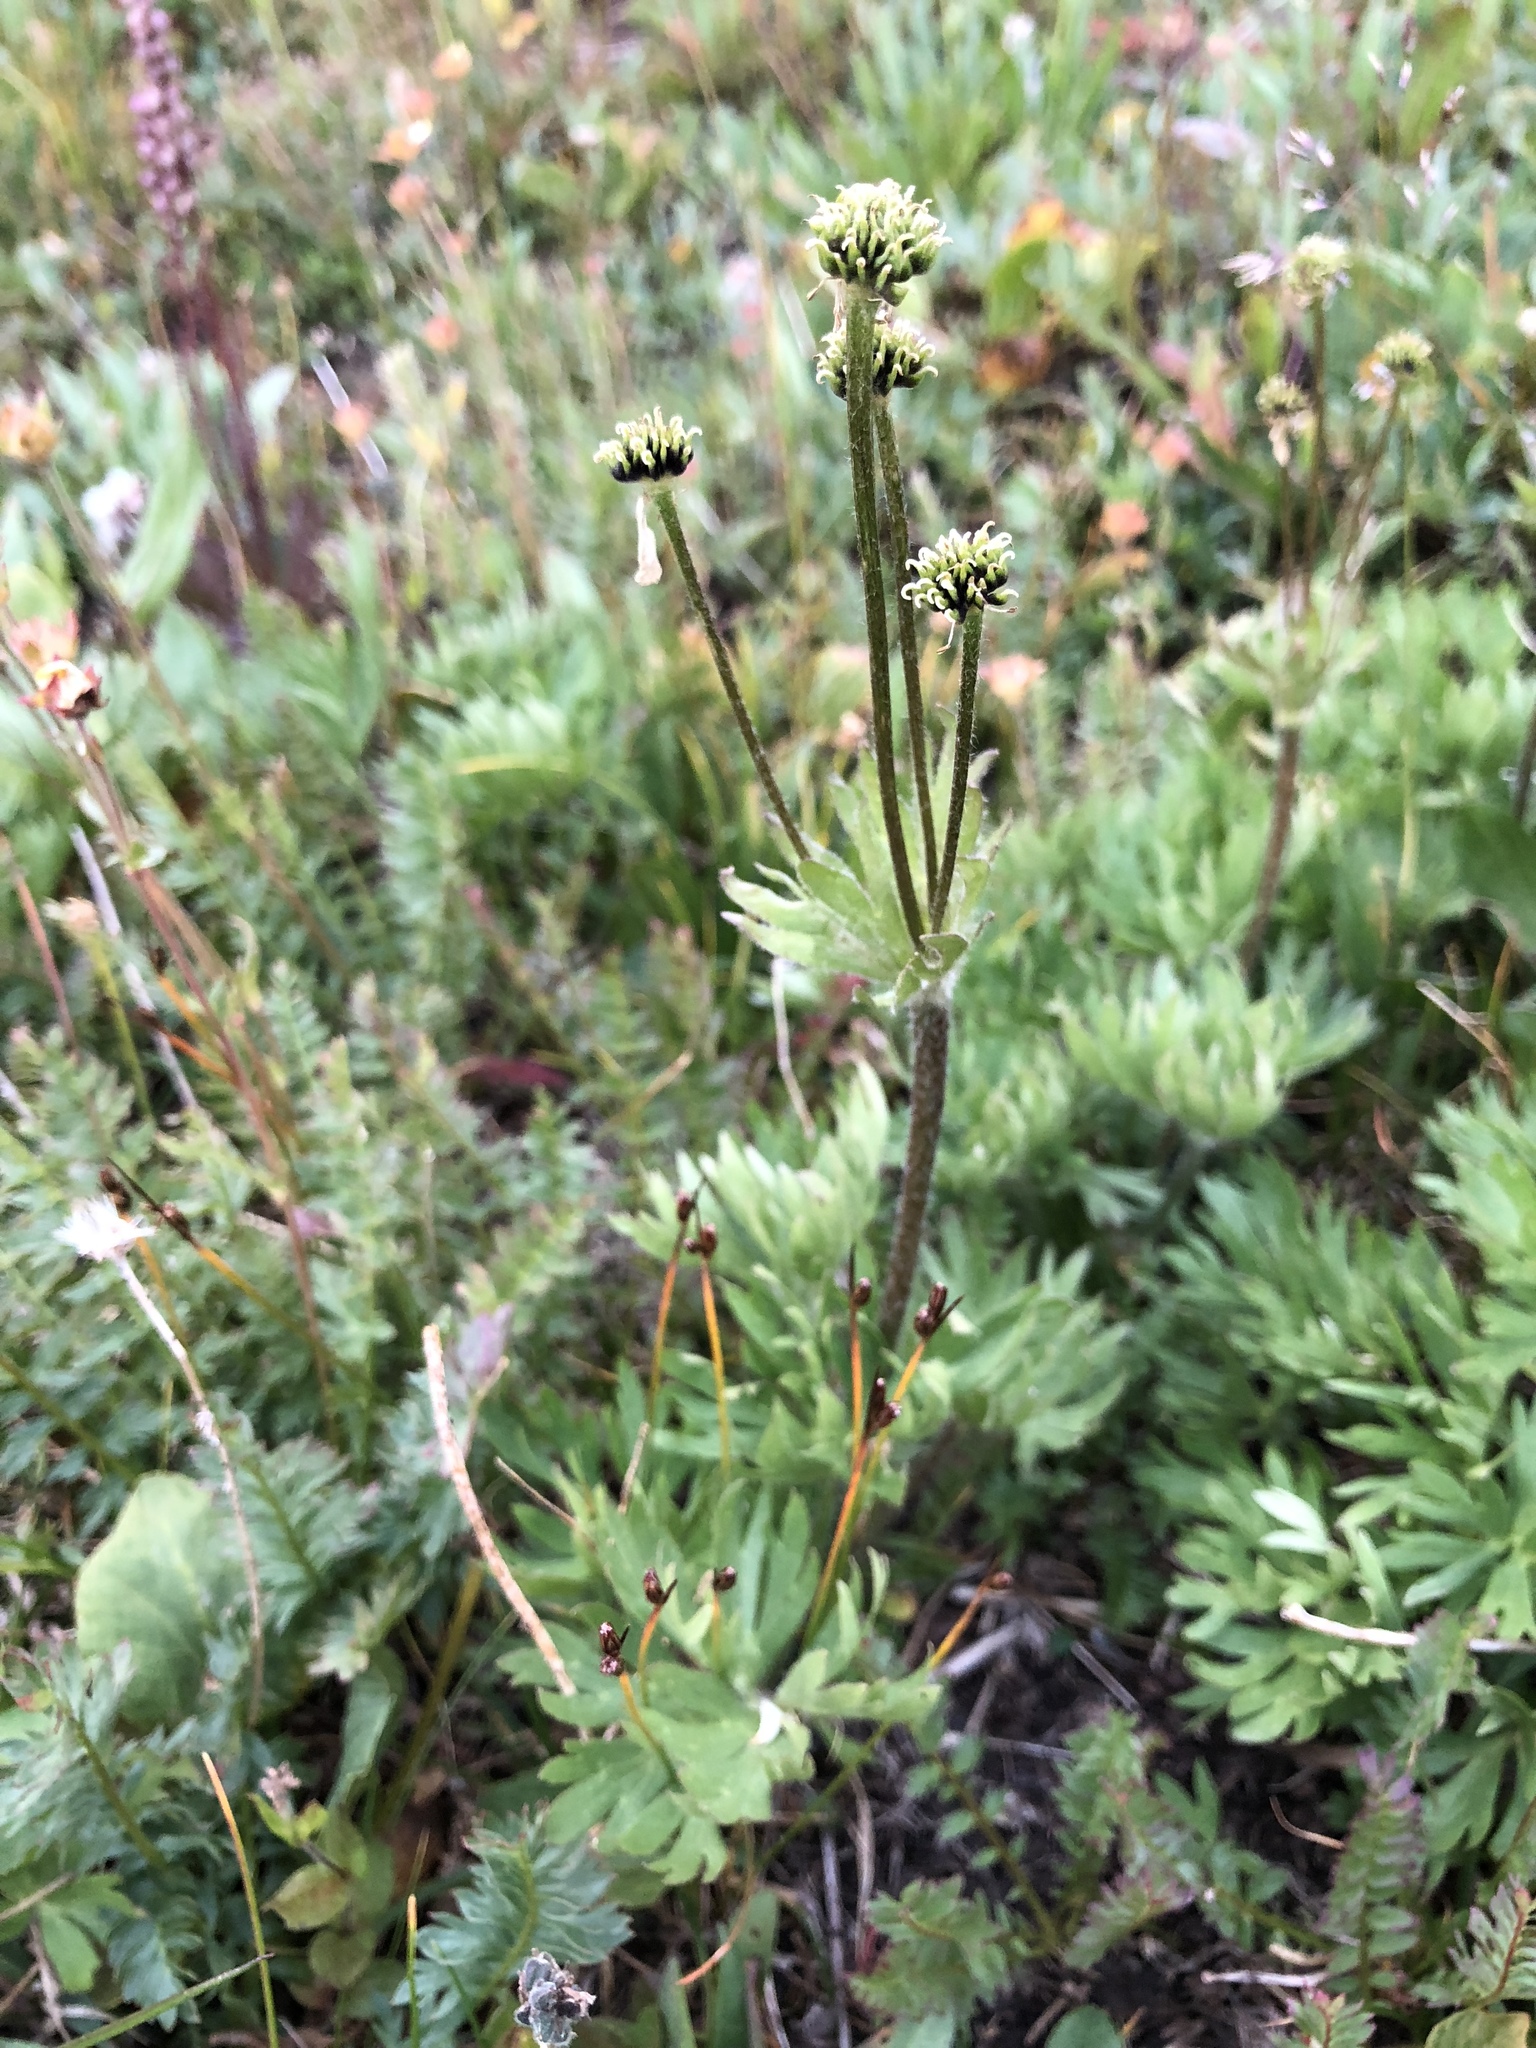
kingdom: Plantae
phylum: Tracheophyta
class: Magnoliopsida
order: Ranunculales
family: Ranunculaceae
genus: Anemonastrum
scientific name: Anemonastrum narcissiflorum
